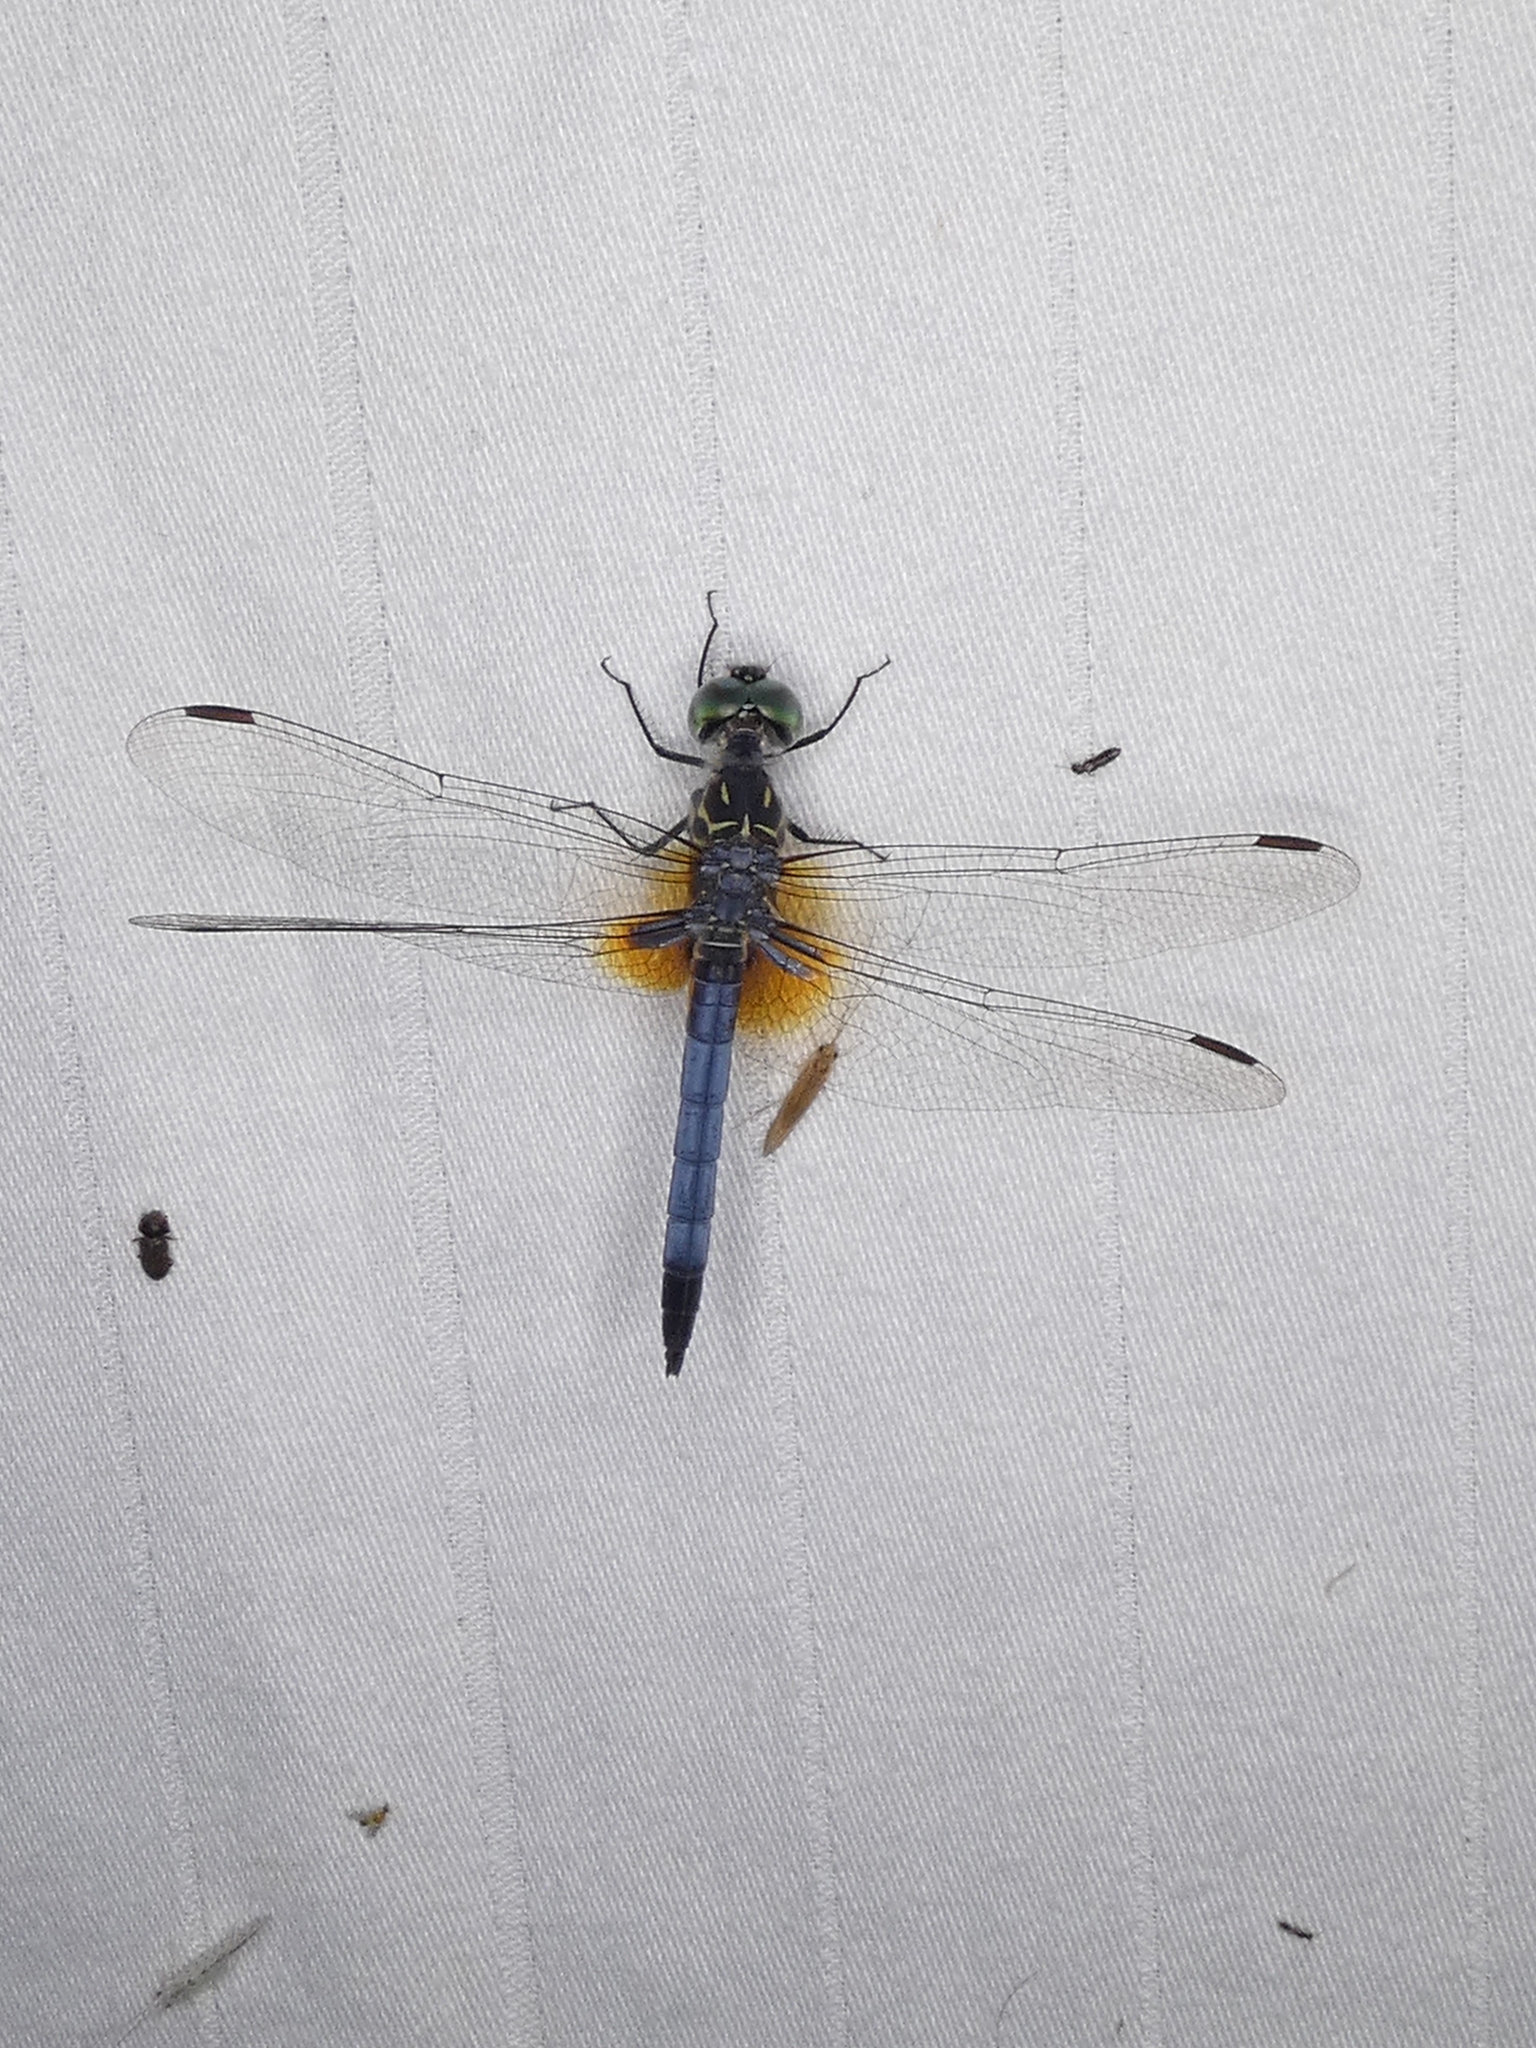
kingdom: Animalia
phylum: Arthropoda
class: Insecta
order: Odonata
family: Libellulidae
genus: Pachydiplax
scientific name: Pachydiplax longipennis
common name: Blue dasher
